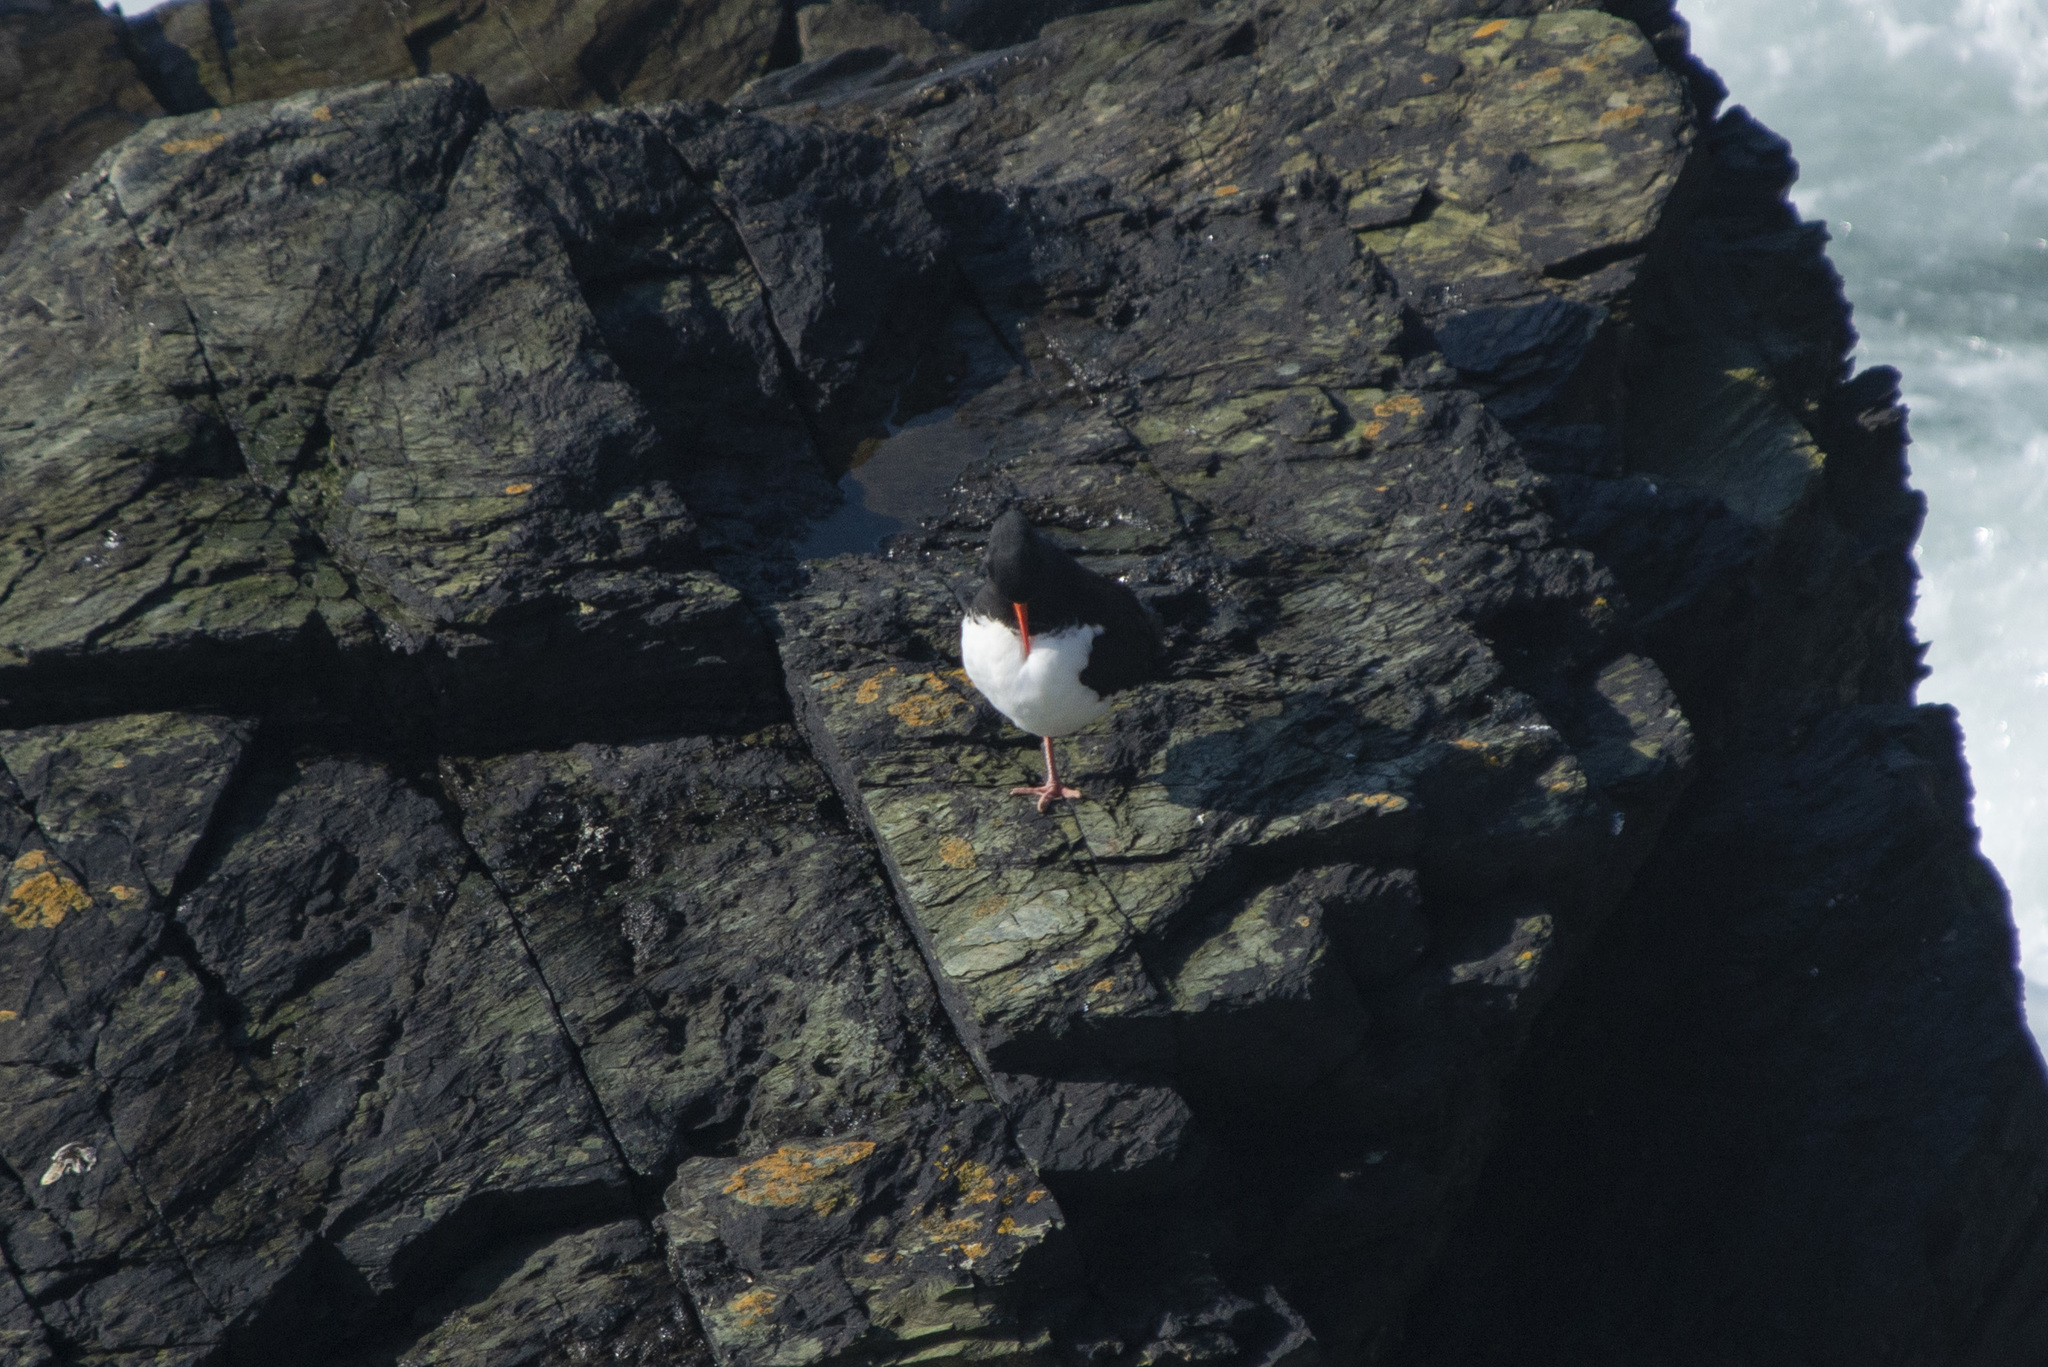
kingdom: Animalia
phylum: Chordata
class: Aves
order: Charadriiformes
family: Haematopodidae
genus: Haematopus
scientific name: Haematopus ostralegus
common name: Eurasian oystercatcher
